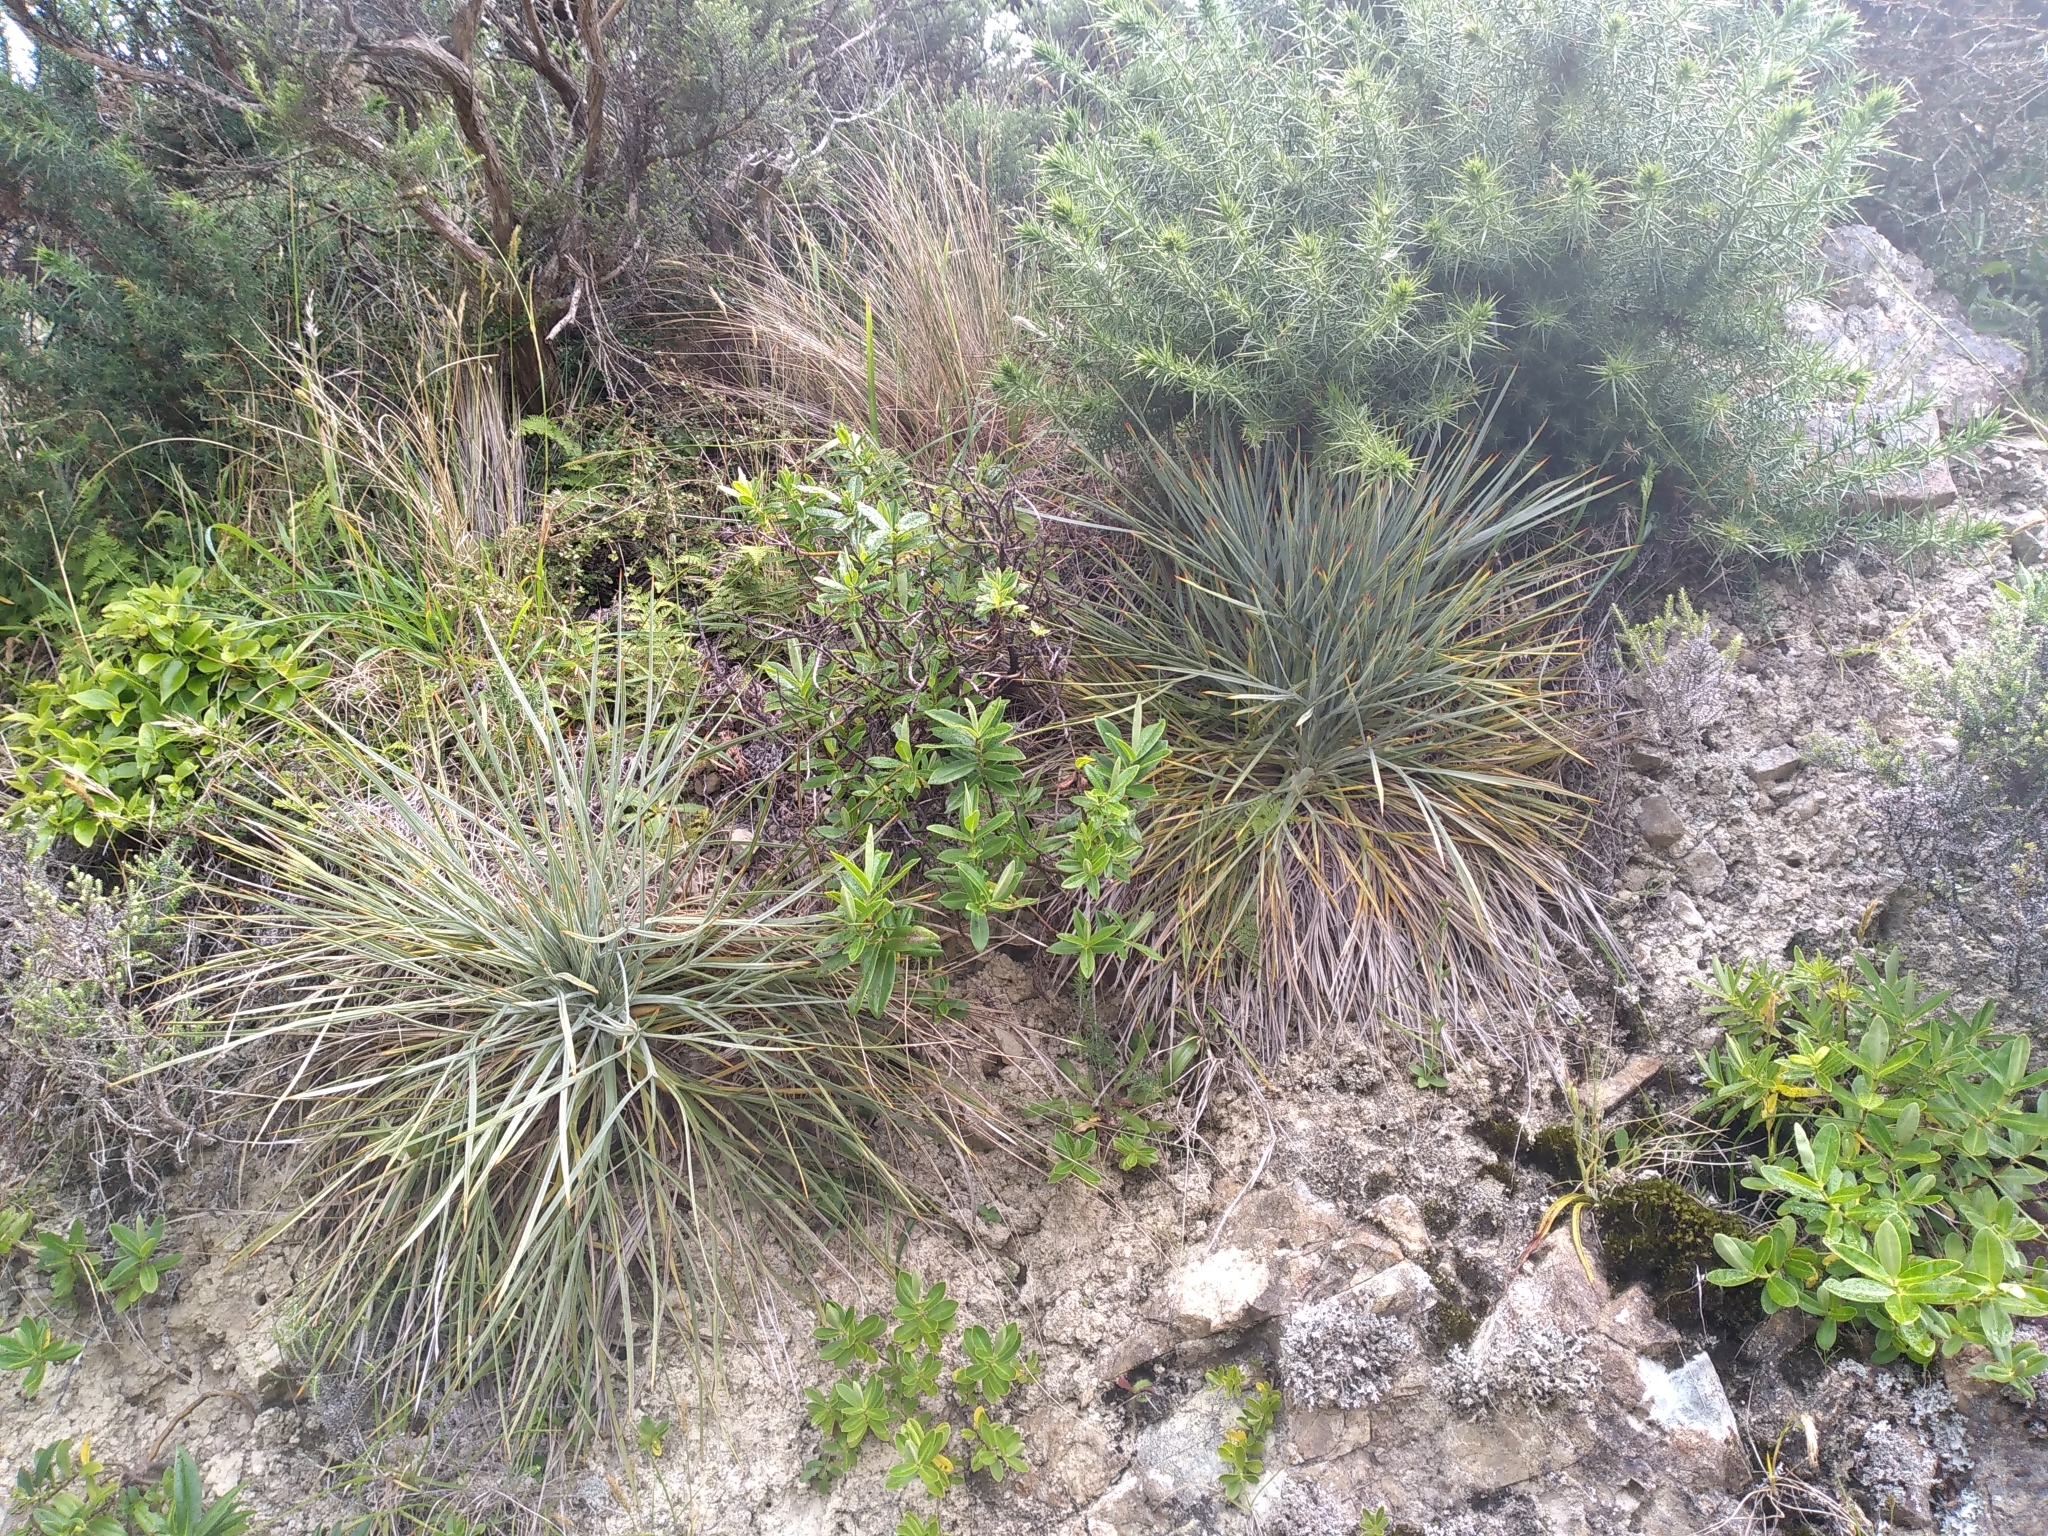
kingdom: Plantae
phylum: Tracheophyta
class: Magnoliopsida
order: Apiales
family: Apiaceae
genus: Aciphylla
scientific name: Aciphylla squarrosa
